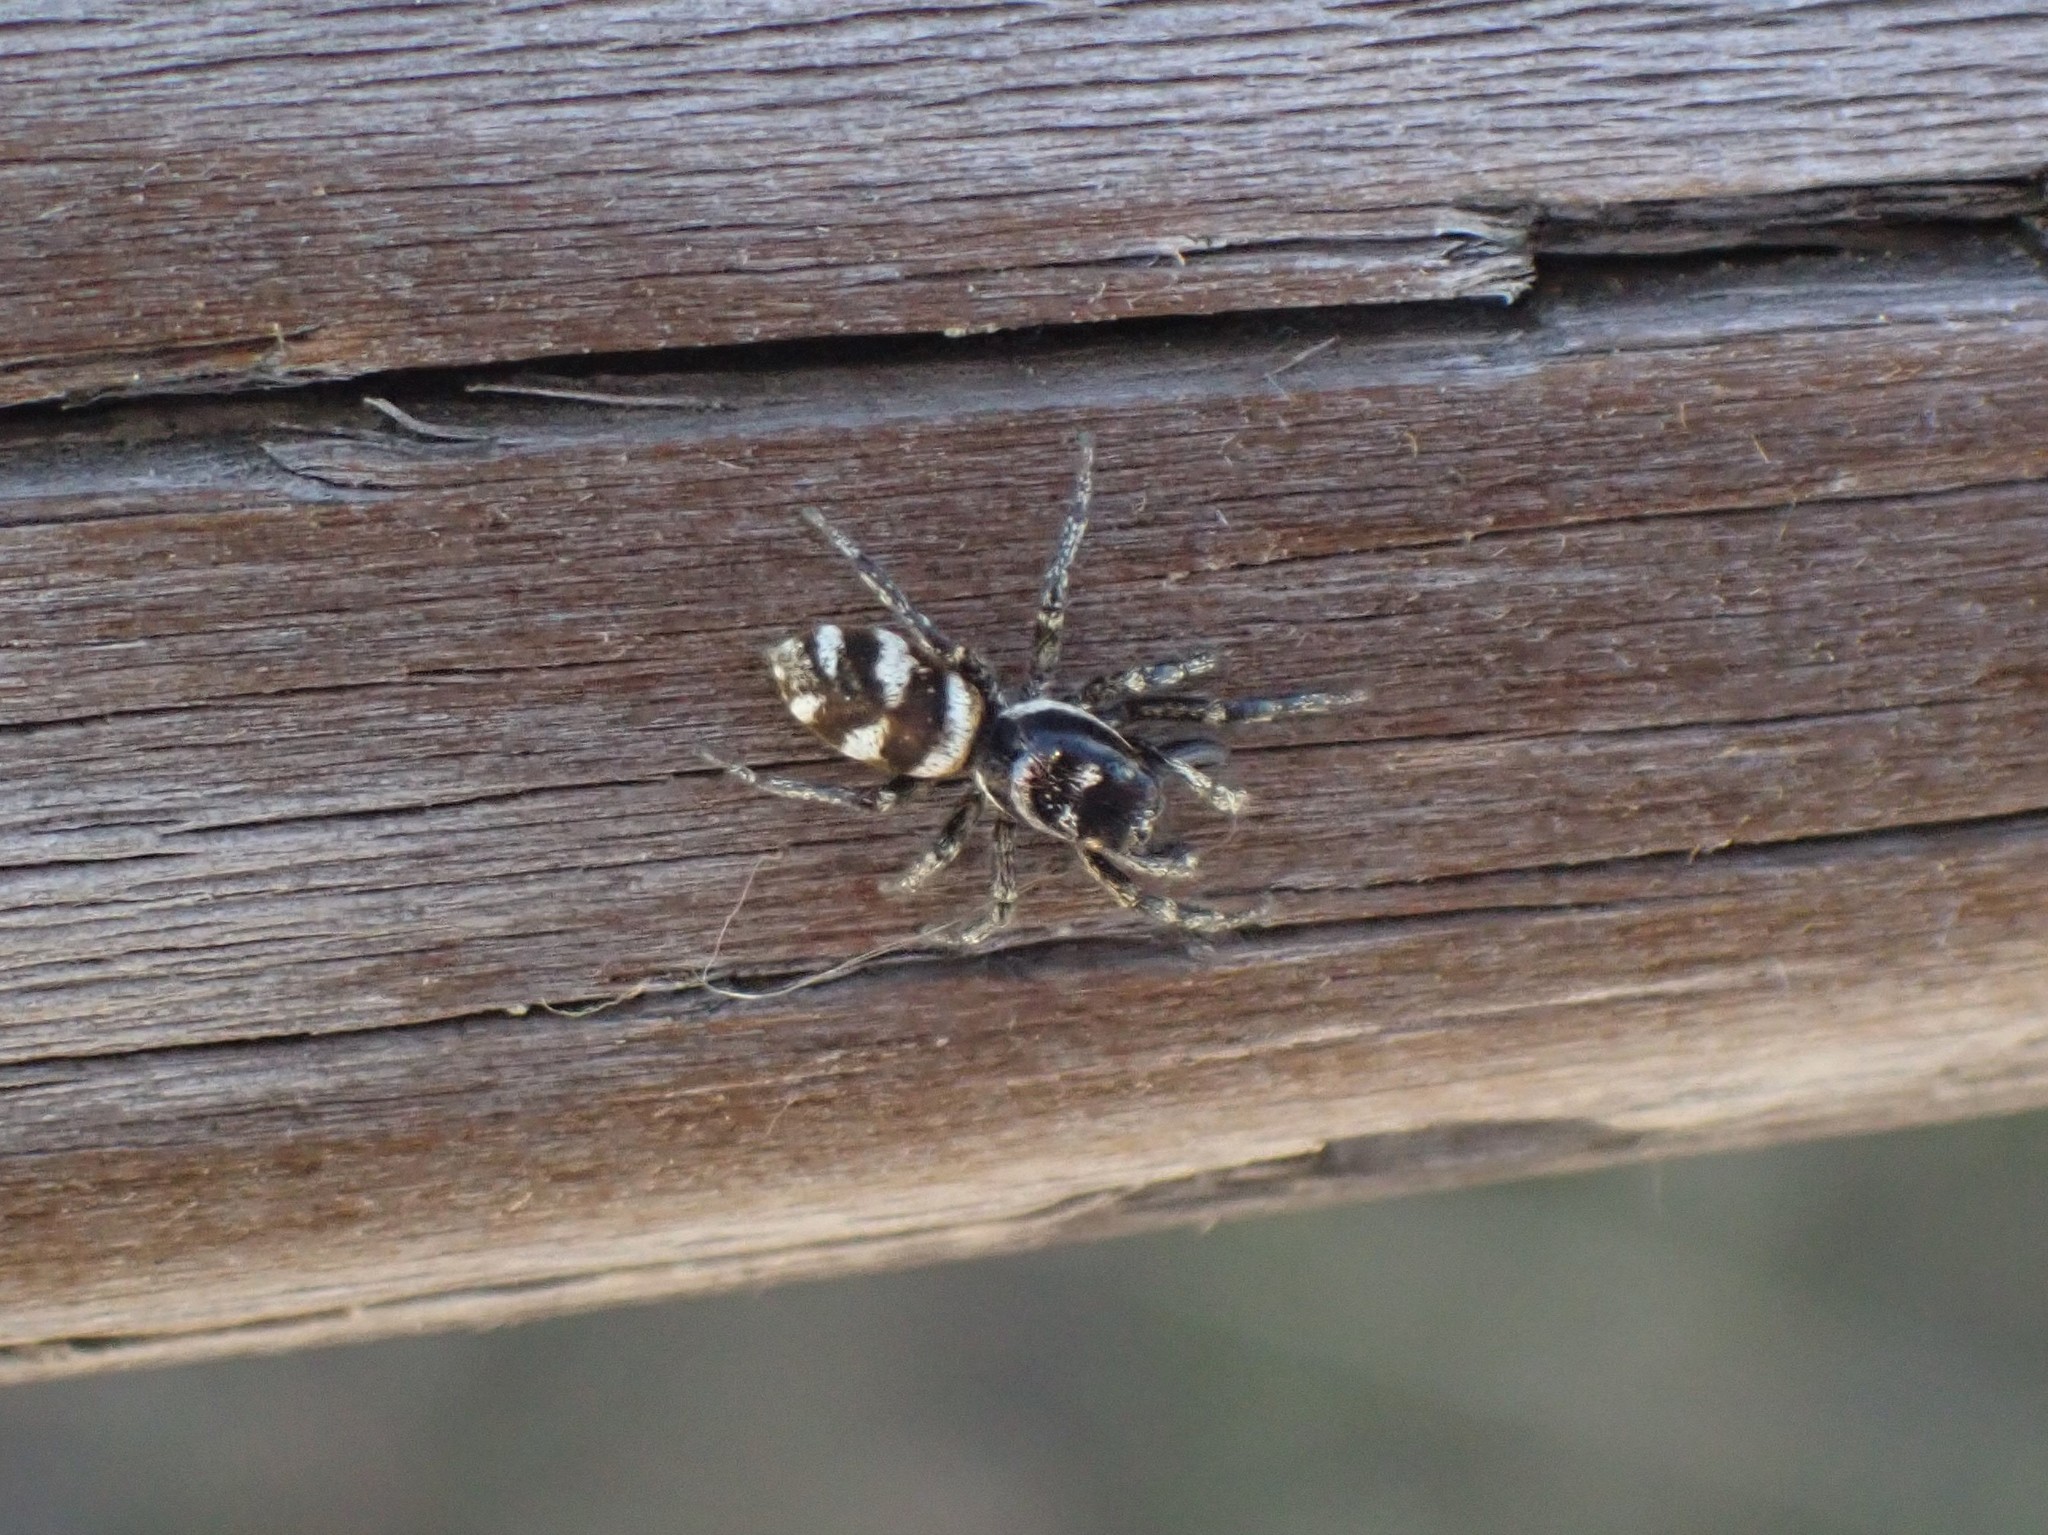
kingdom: Animalia
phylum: Arthropoda
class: Arachnida
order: Araneae
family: Salticidae
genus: Salticus
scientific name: Salticus scenicus
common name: Zebra jumper
